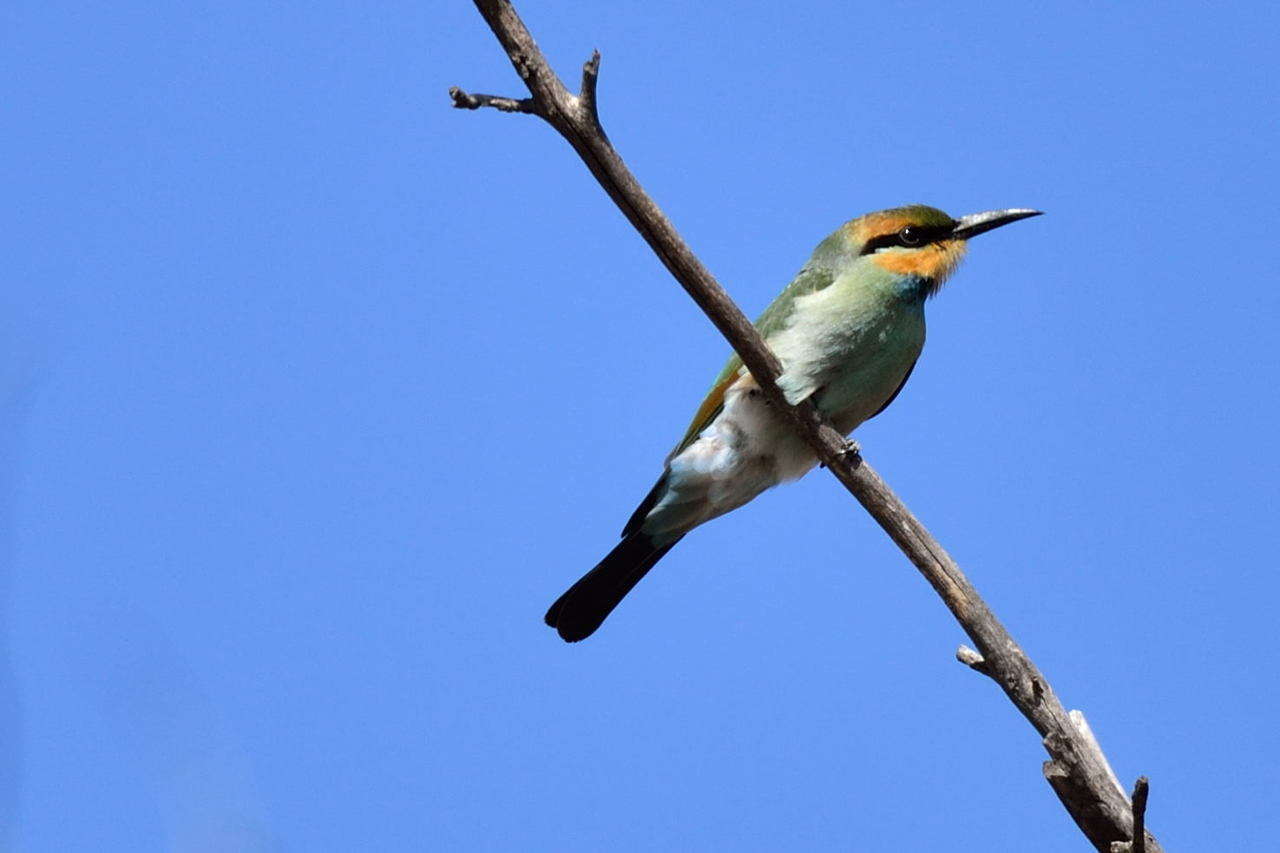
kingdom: Animalia
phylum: Chordata
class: Aves
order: Coraciiformes
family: Meropidae
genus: Merops
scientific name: Merops ornatus
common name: Rainbow bee-eater
